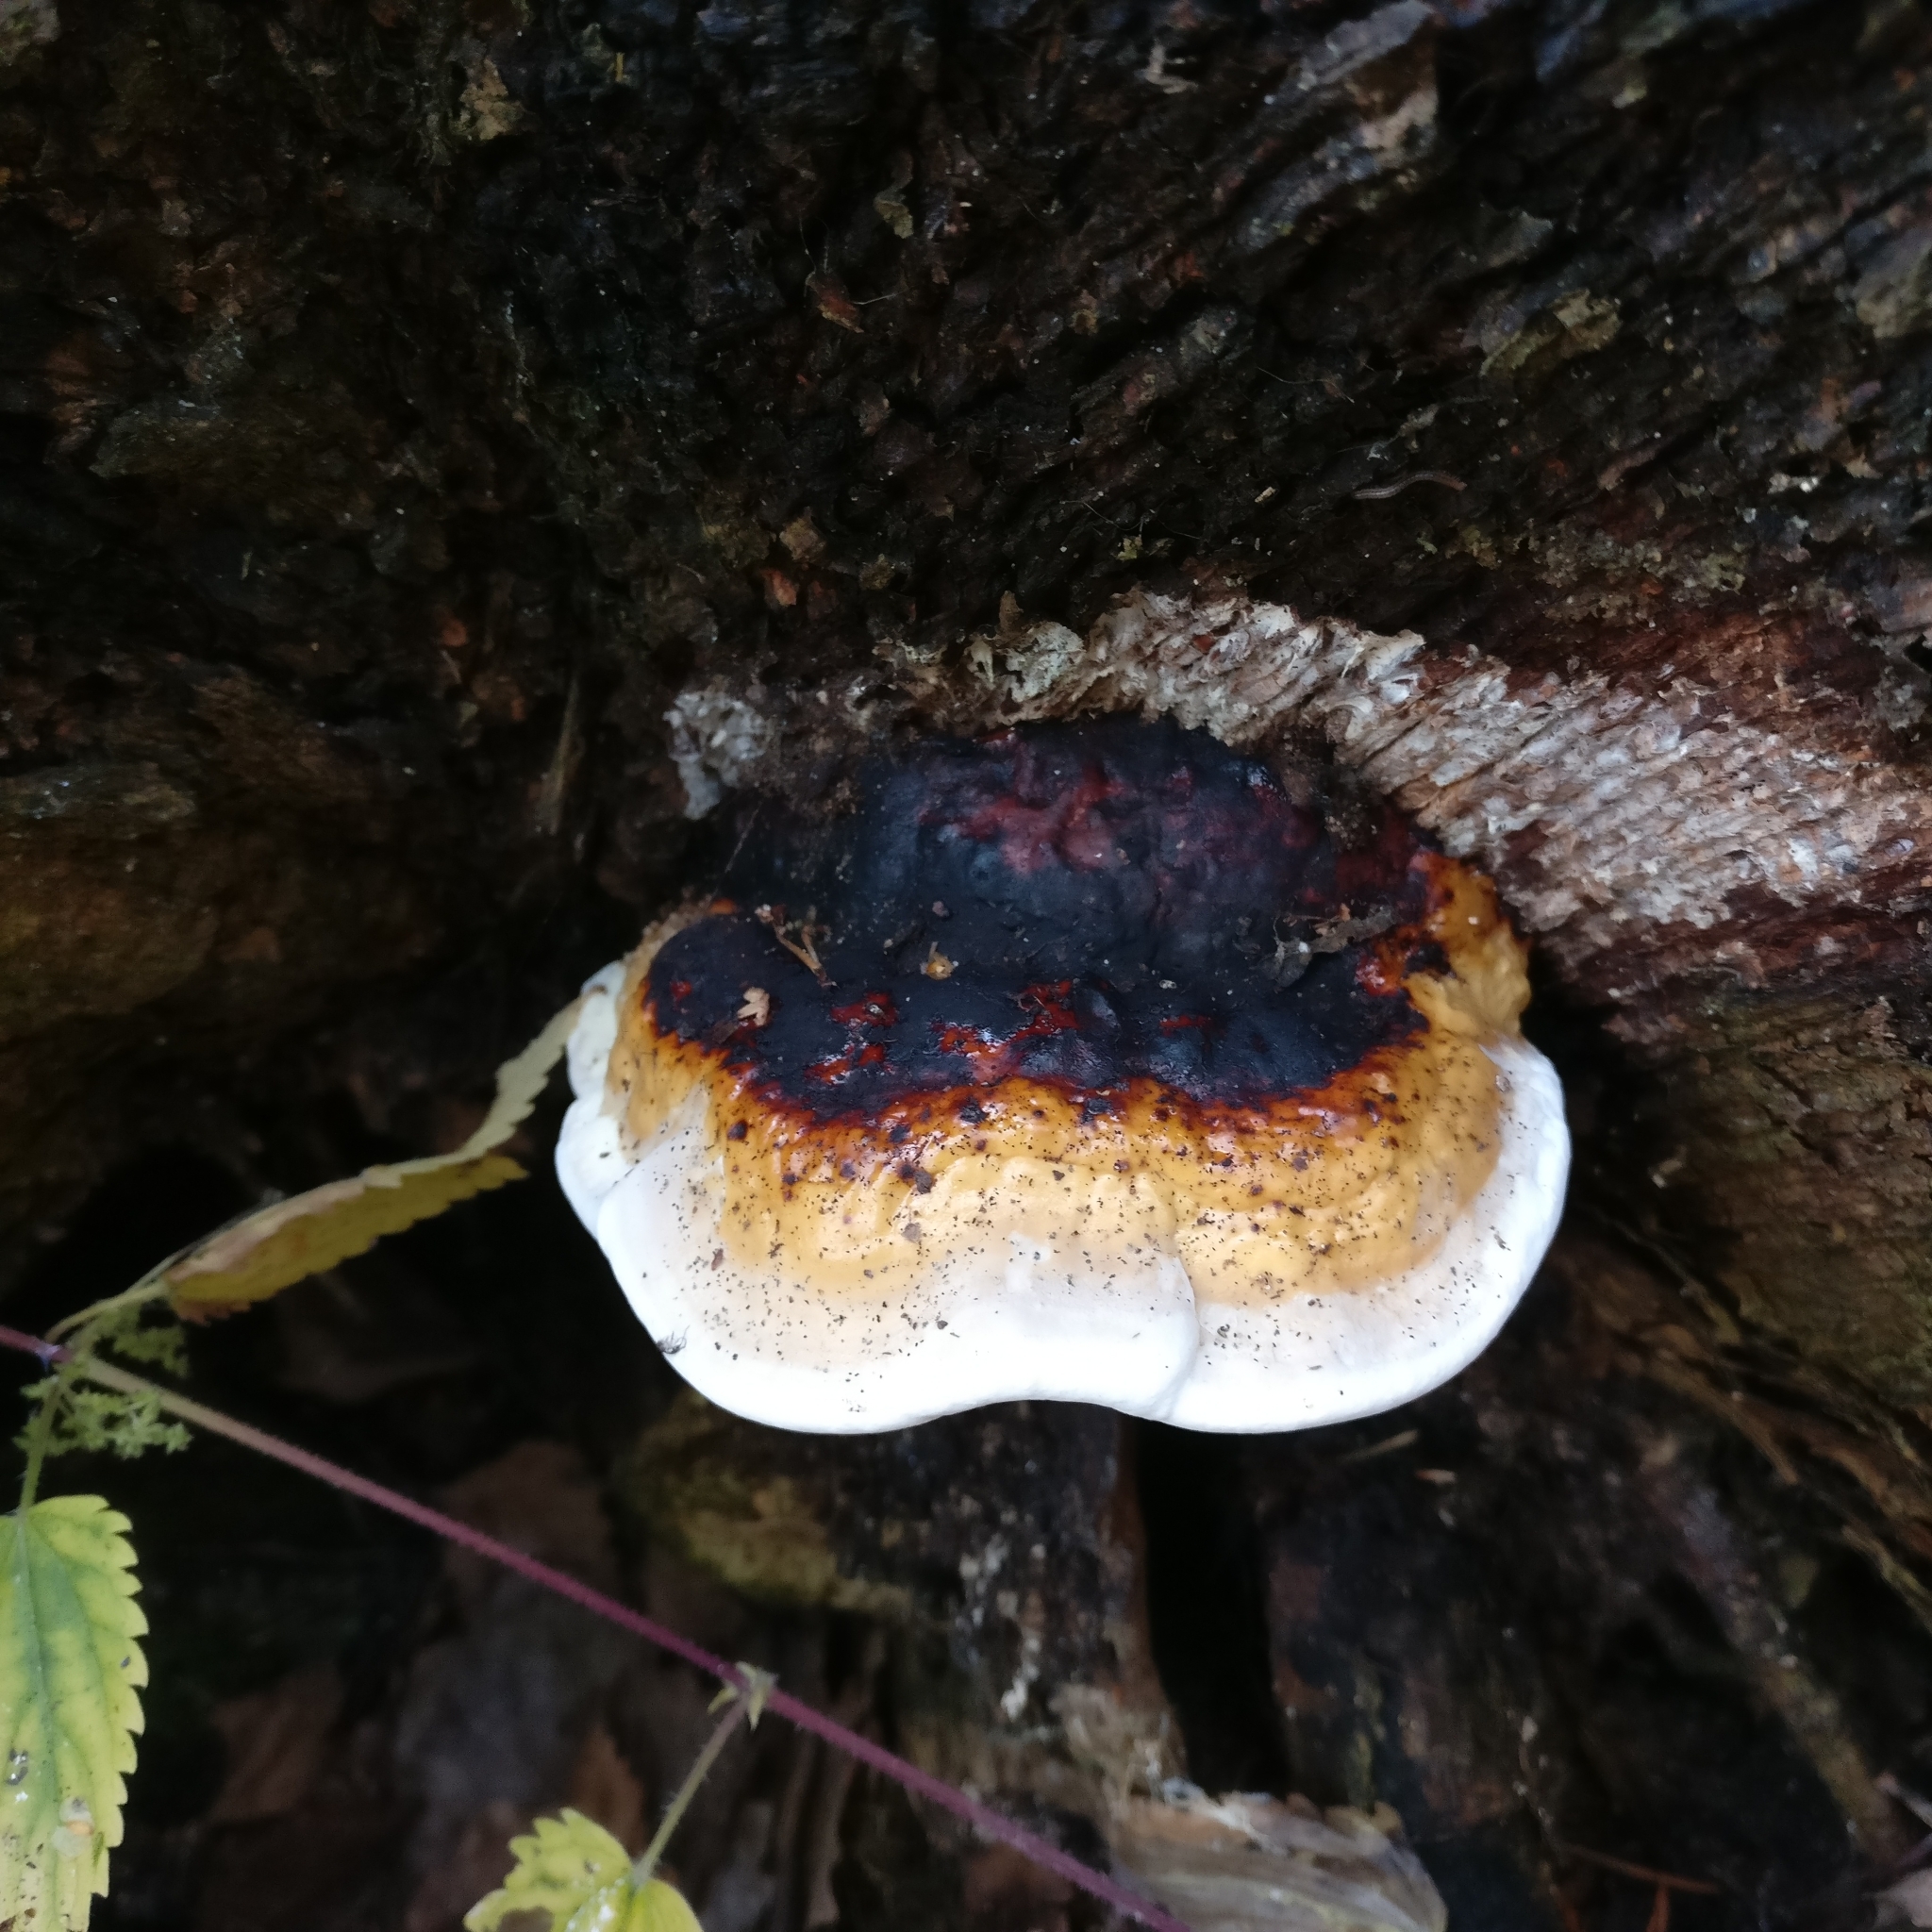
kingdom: Fungi
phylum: Basidiomycota
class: Agaricomycetes
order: Polyporales
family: Fomitopsidaceae
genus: Fomitopsis
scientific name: Fomitopsis pinicola
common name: Red-belted bracket
